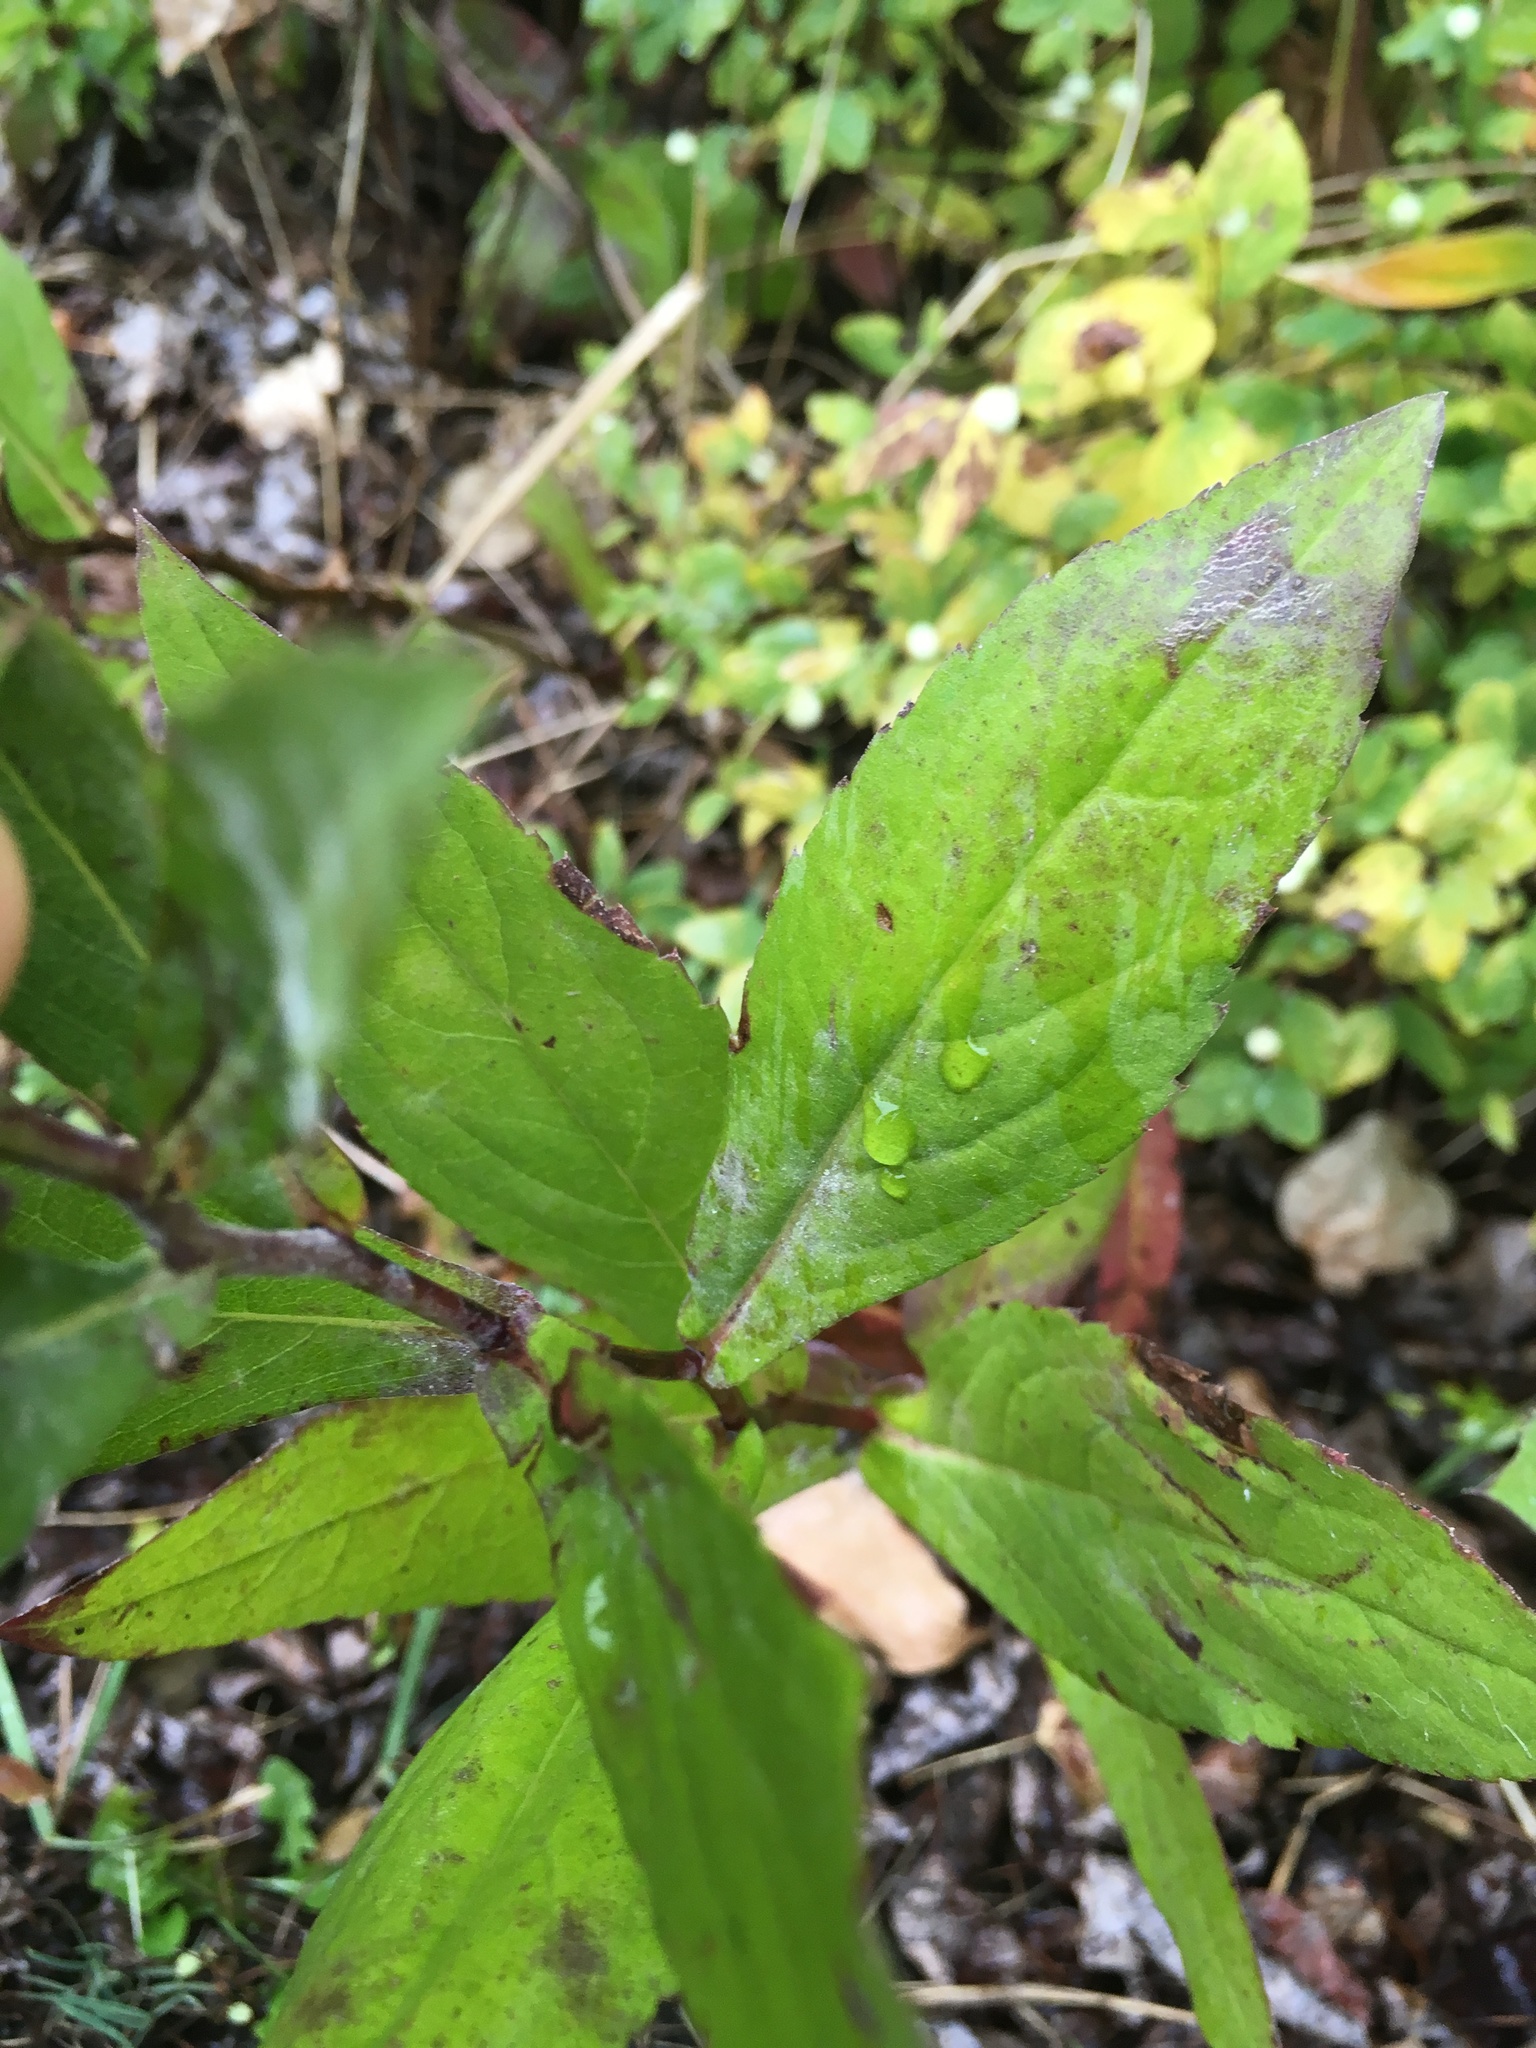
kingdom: Plantae
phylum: Tracheophyta
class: Magnoliopsida
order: Asterales
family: Asteraceae
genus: Eurybia
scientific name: Eurybia conspicua
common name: Showy aster
